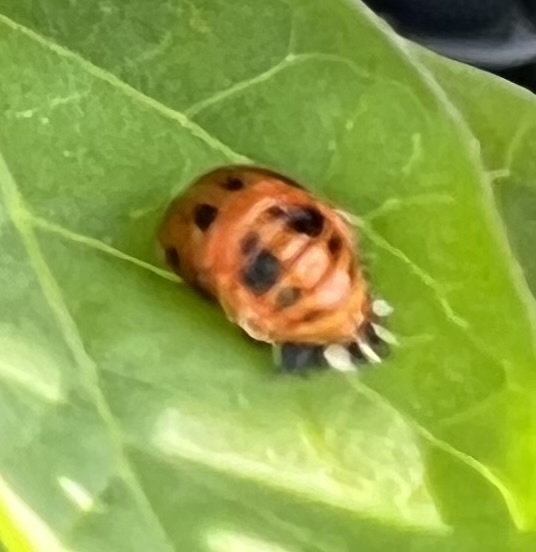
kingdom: Animalia
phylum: Arthropoda
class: Insecta
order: Coleoptera
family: Coccinellidae
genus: Harmonia
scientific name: Harmonia axyridis
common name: Harlequin ladybird
